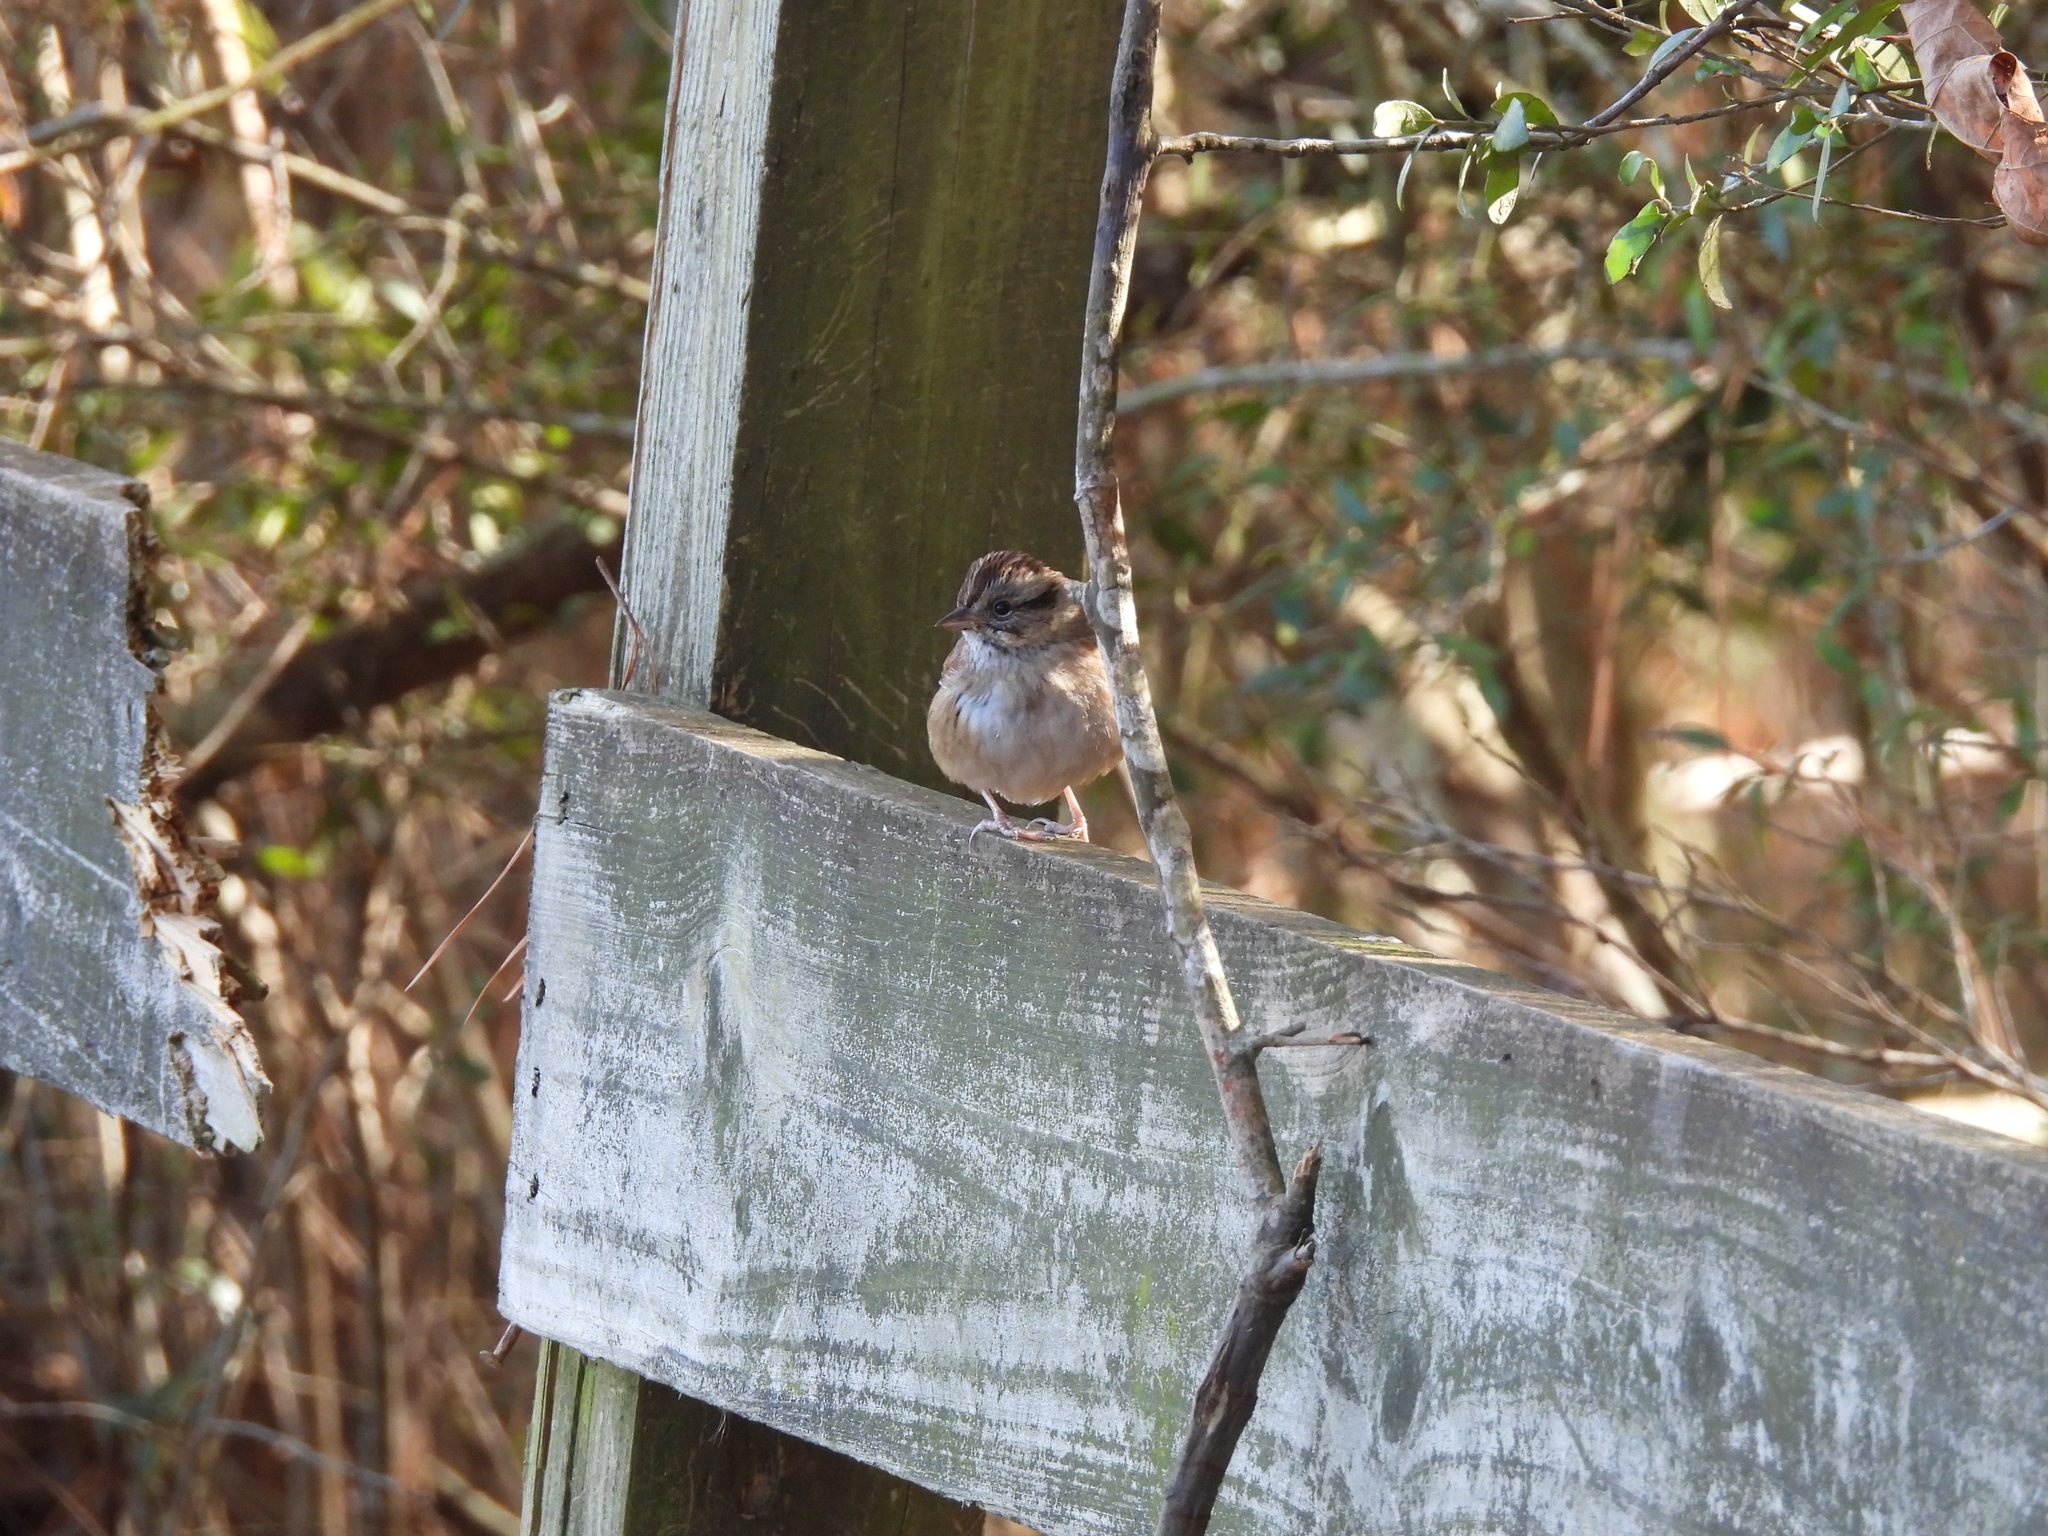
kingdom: Animalia
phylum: Chordata
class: Aves
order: Passeriformes
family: Passerellidae
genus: Melospiza
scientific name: Melospiza georgiana
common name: Swamp sparrow
